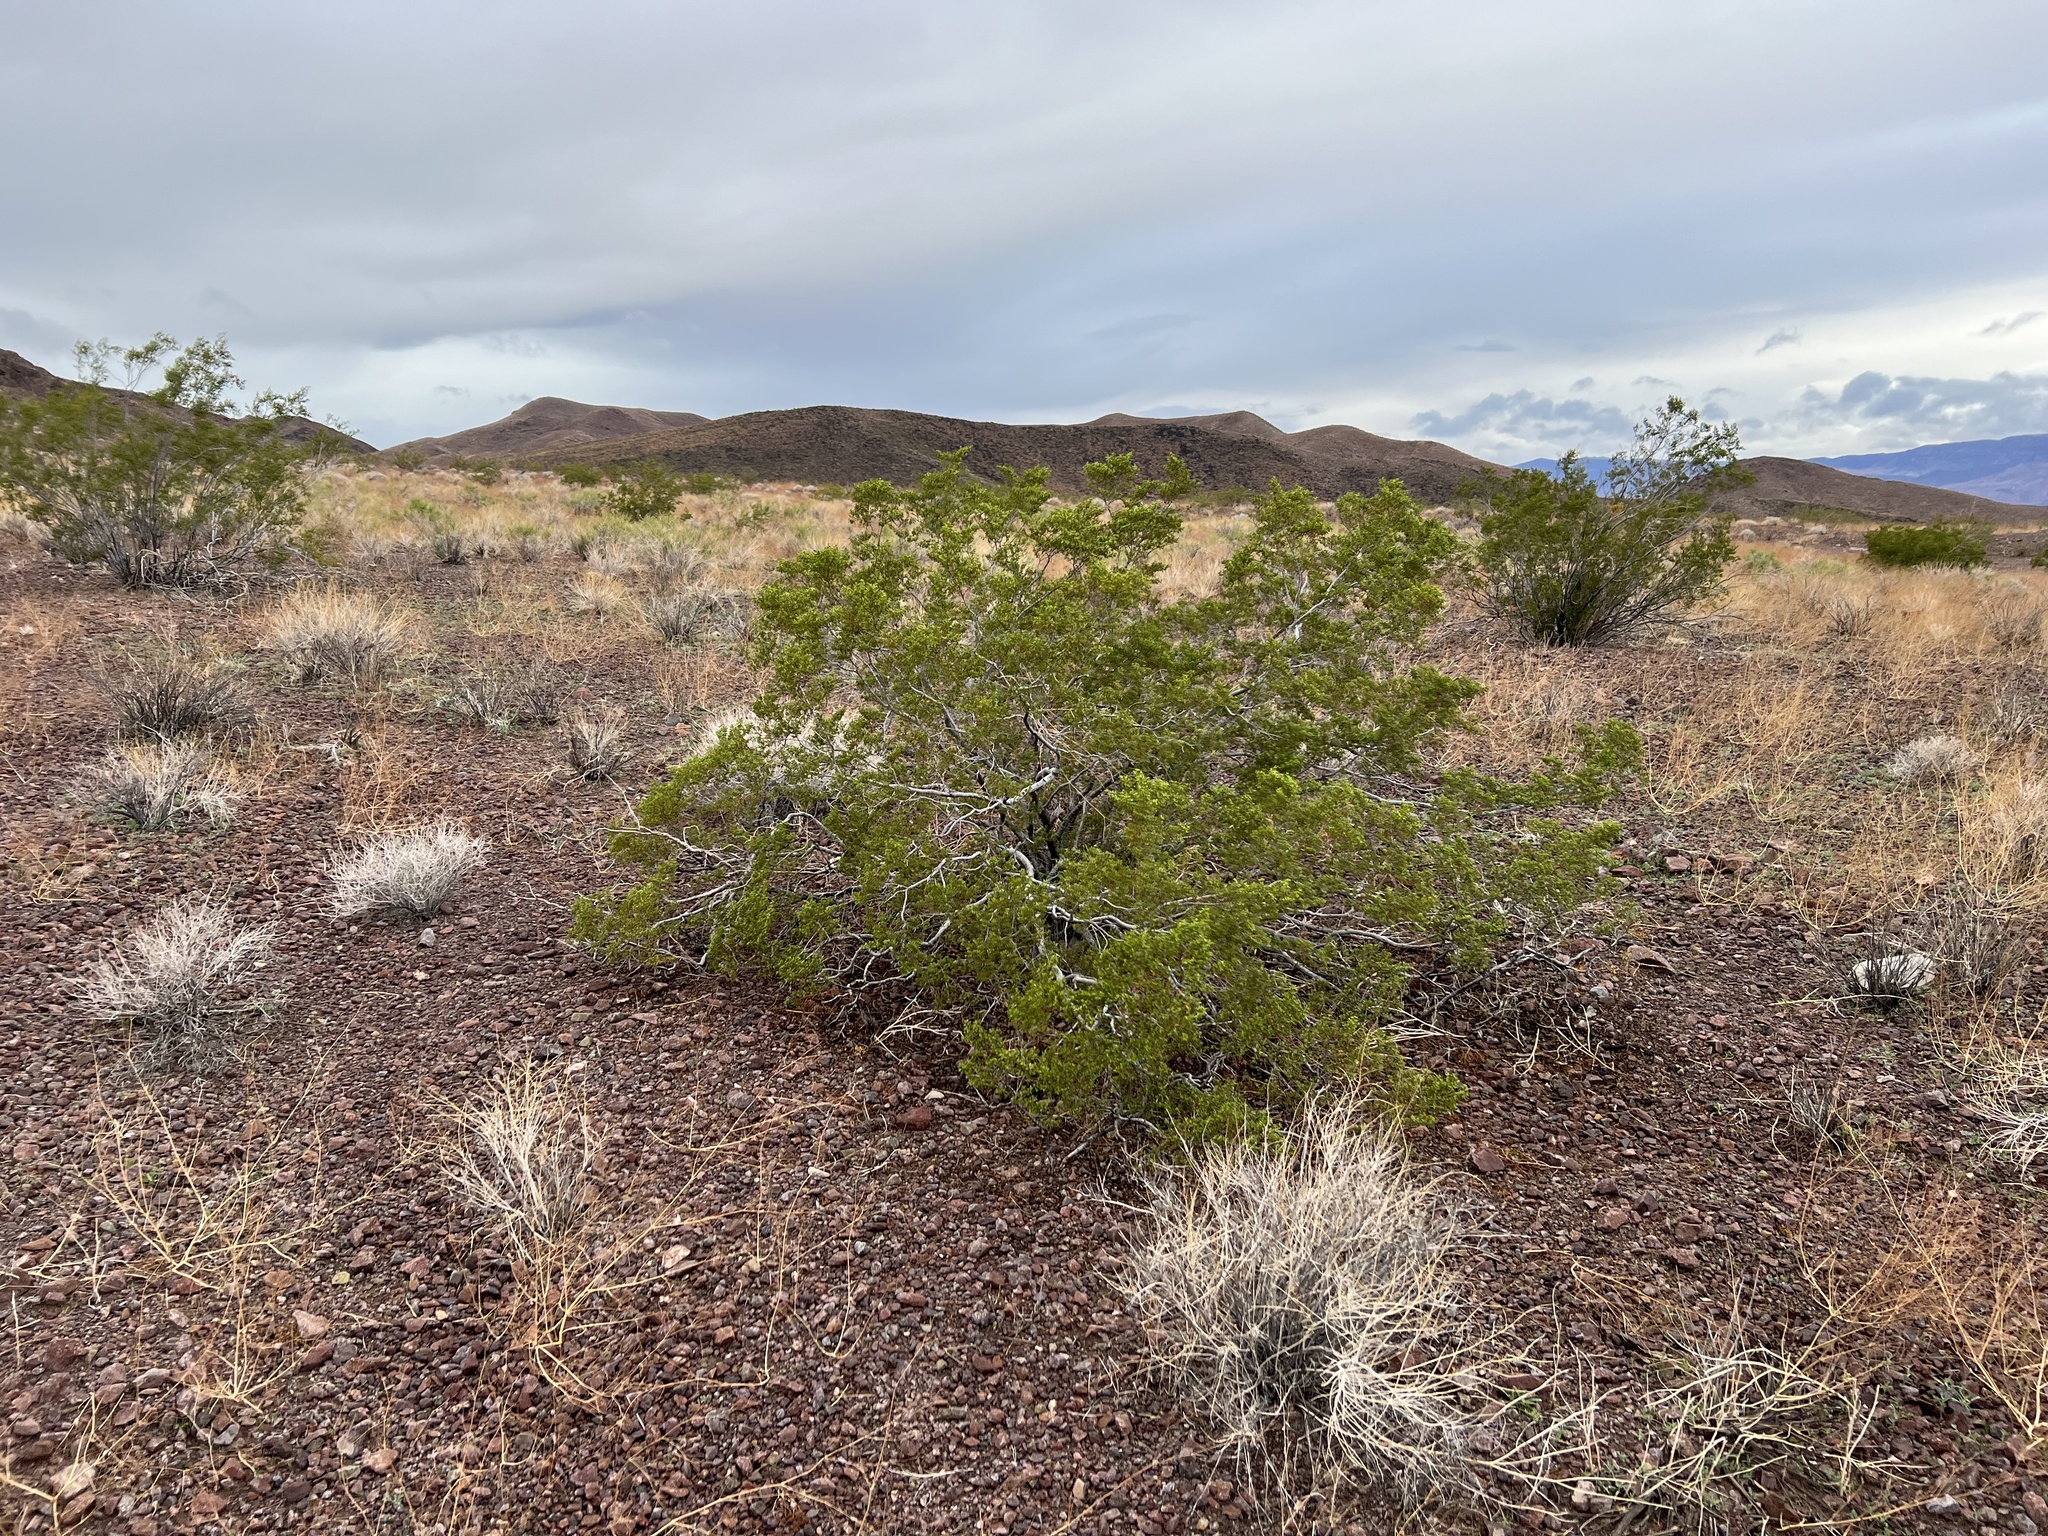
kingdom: Plantae
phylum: Tracheophyta
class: Magnoliopsida
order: Zygophyllales
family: Zygophyllaceae
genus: Larrea
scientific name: Larrea tridentata
